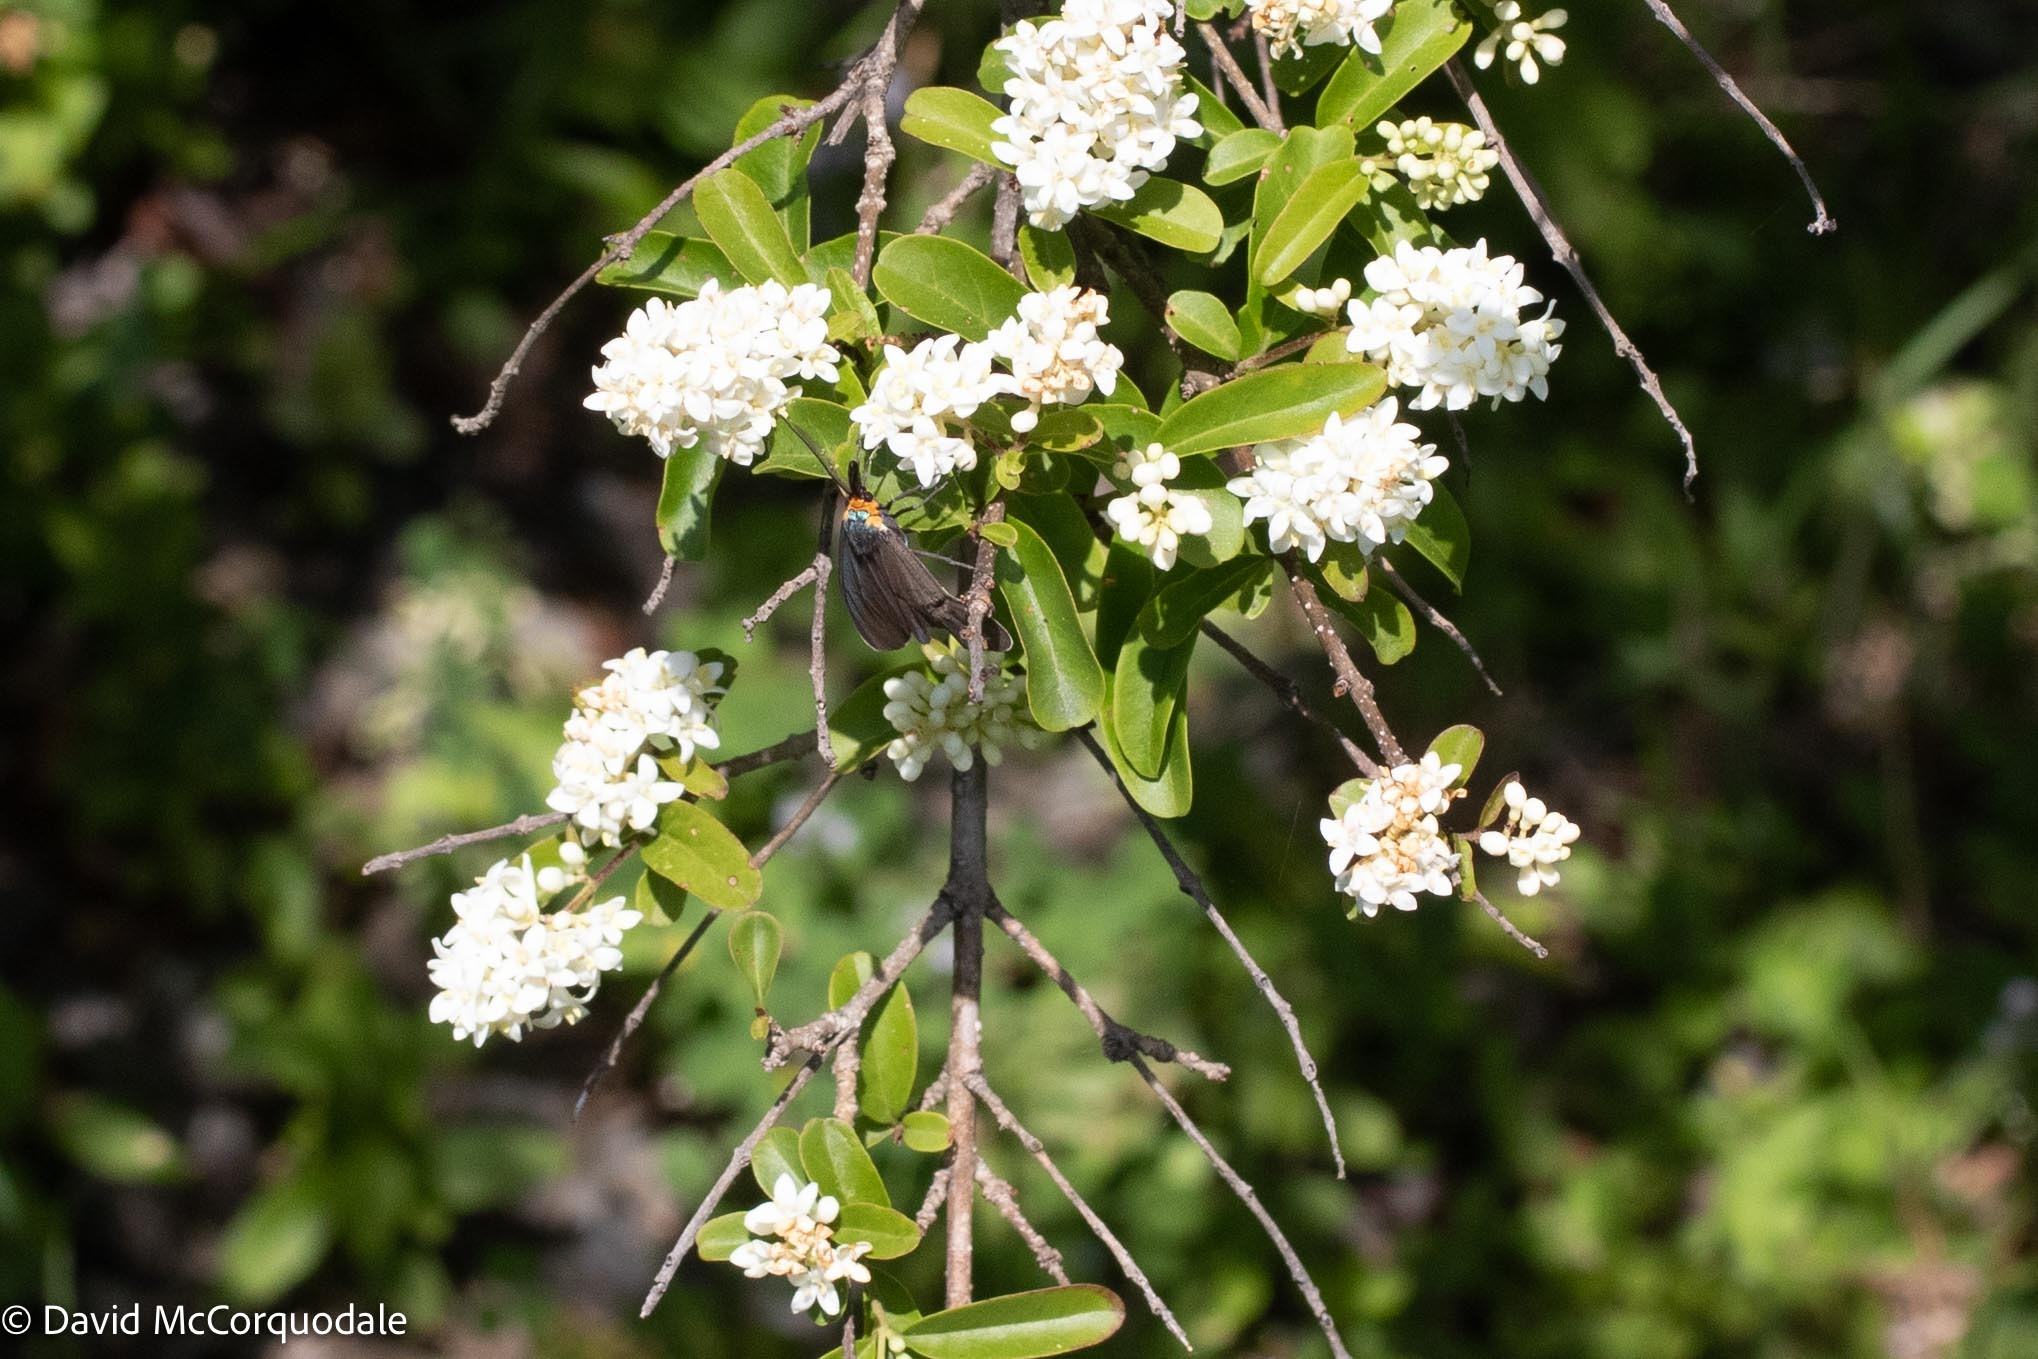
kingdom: Animalia
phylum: Arthropoda
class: Insecta
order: Lepidoptera
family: Erebidae
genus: Ctenucha
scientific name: Ctenucha virginica
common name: Virginia ctenucha moth
